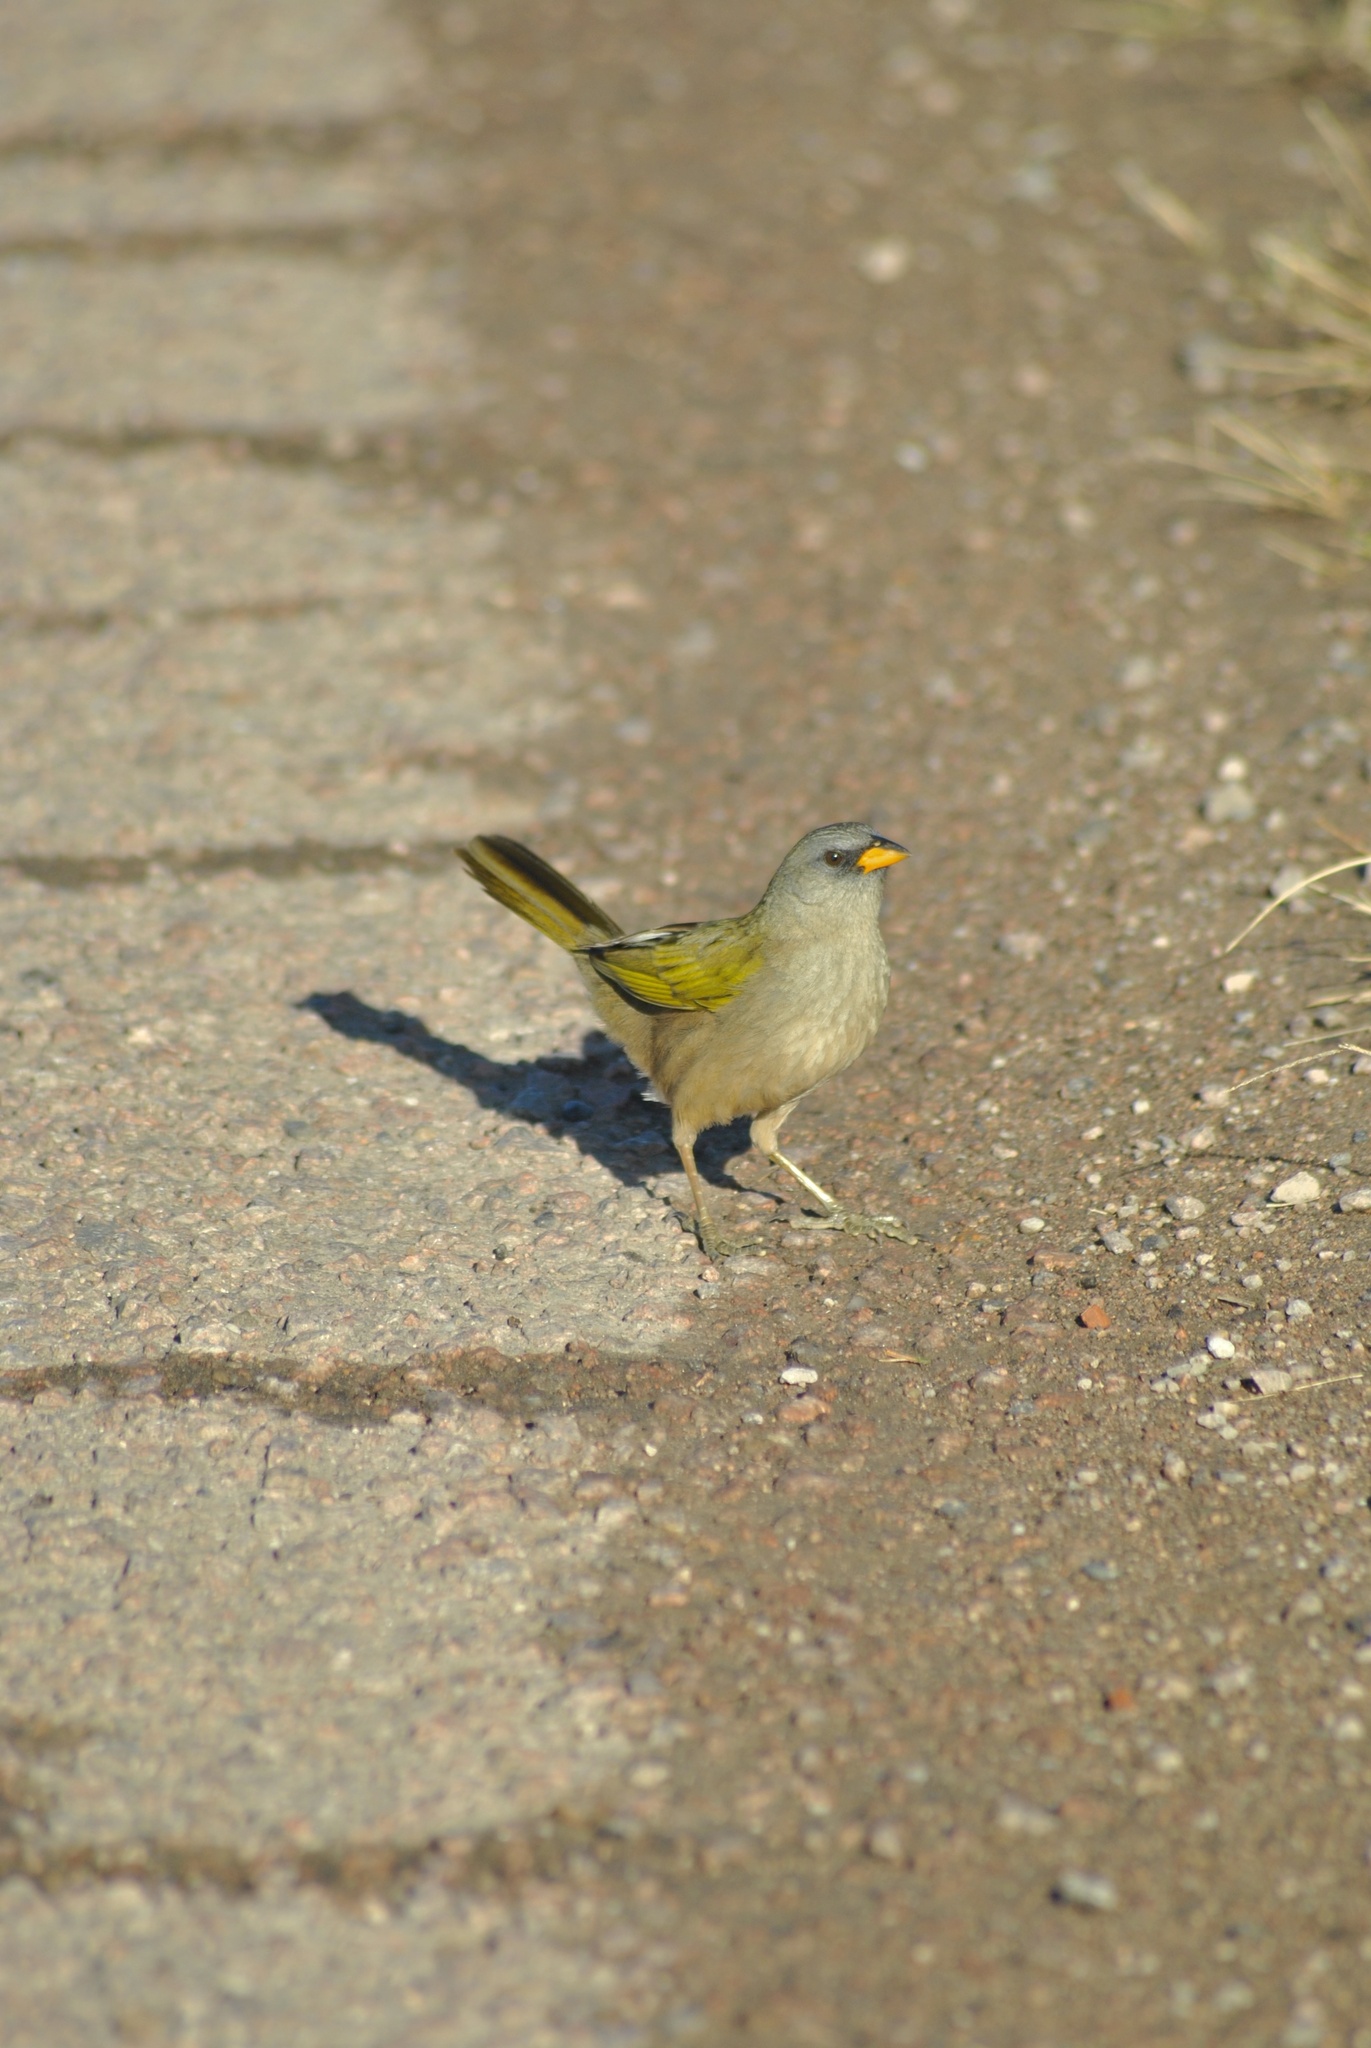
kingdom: Animalia
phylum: Chordata
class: Aves
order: Passeriformes
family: Thraupidae
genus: Embernagra
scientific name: Embernagra platensis
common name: Pampa finch
